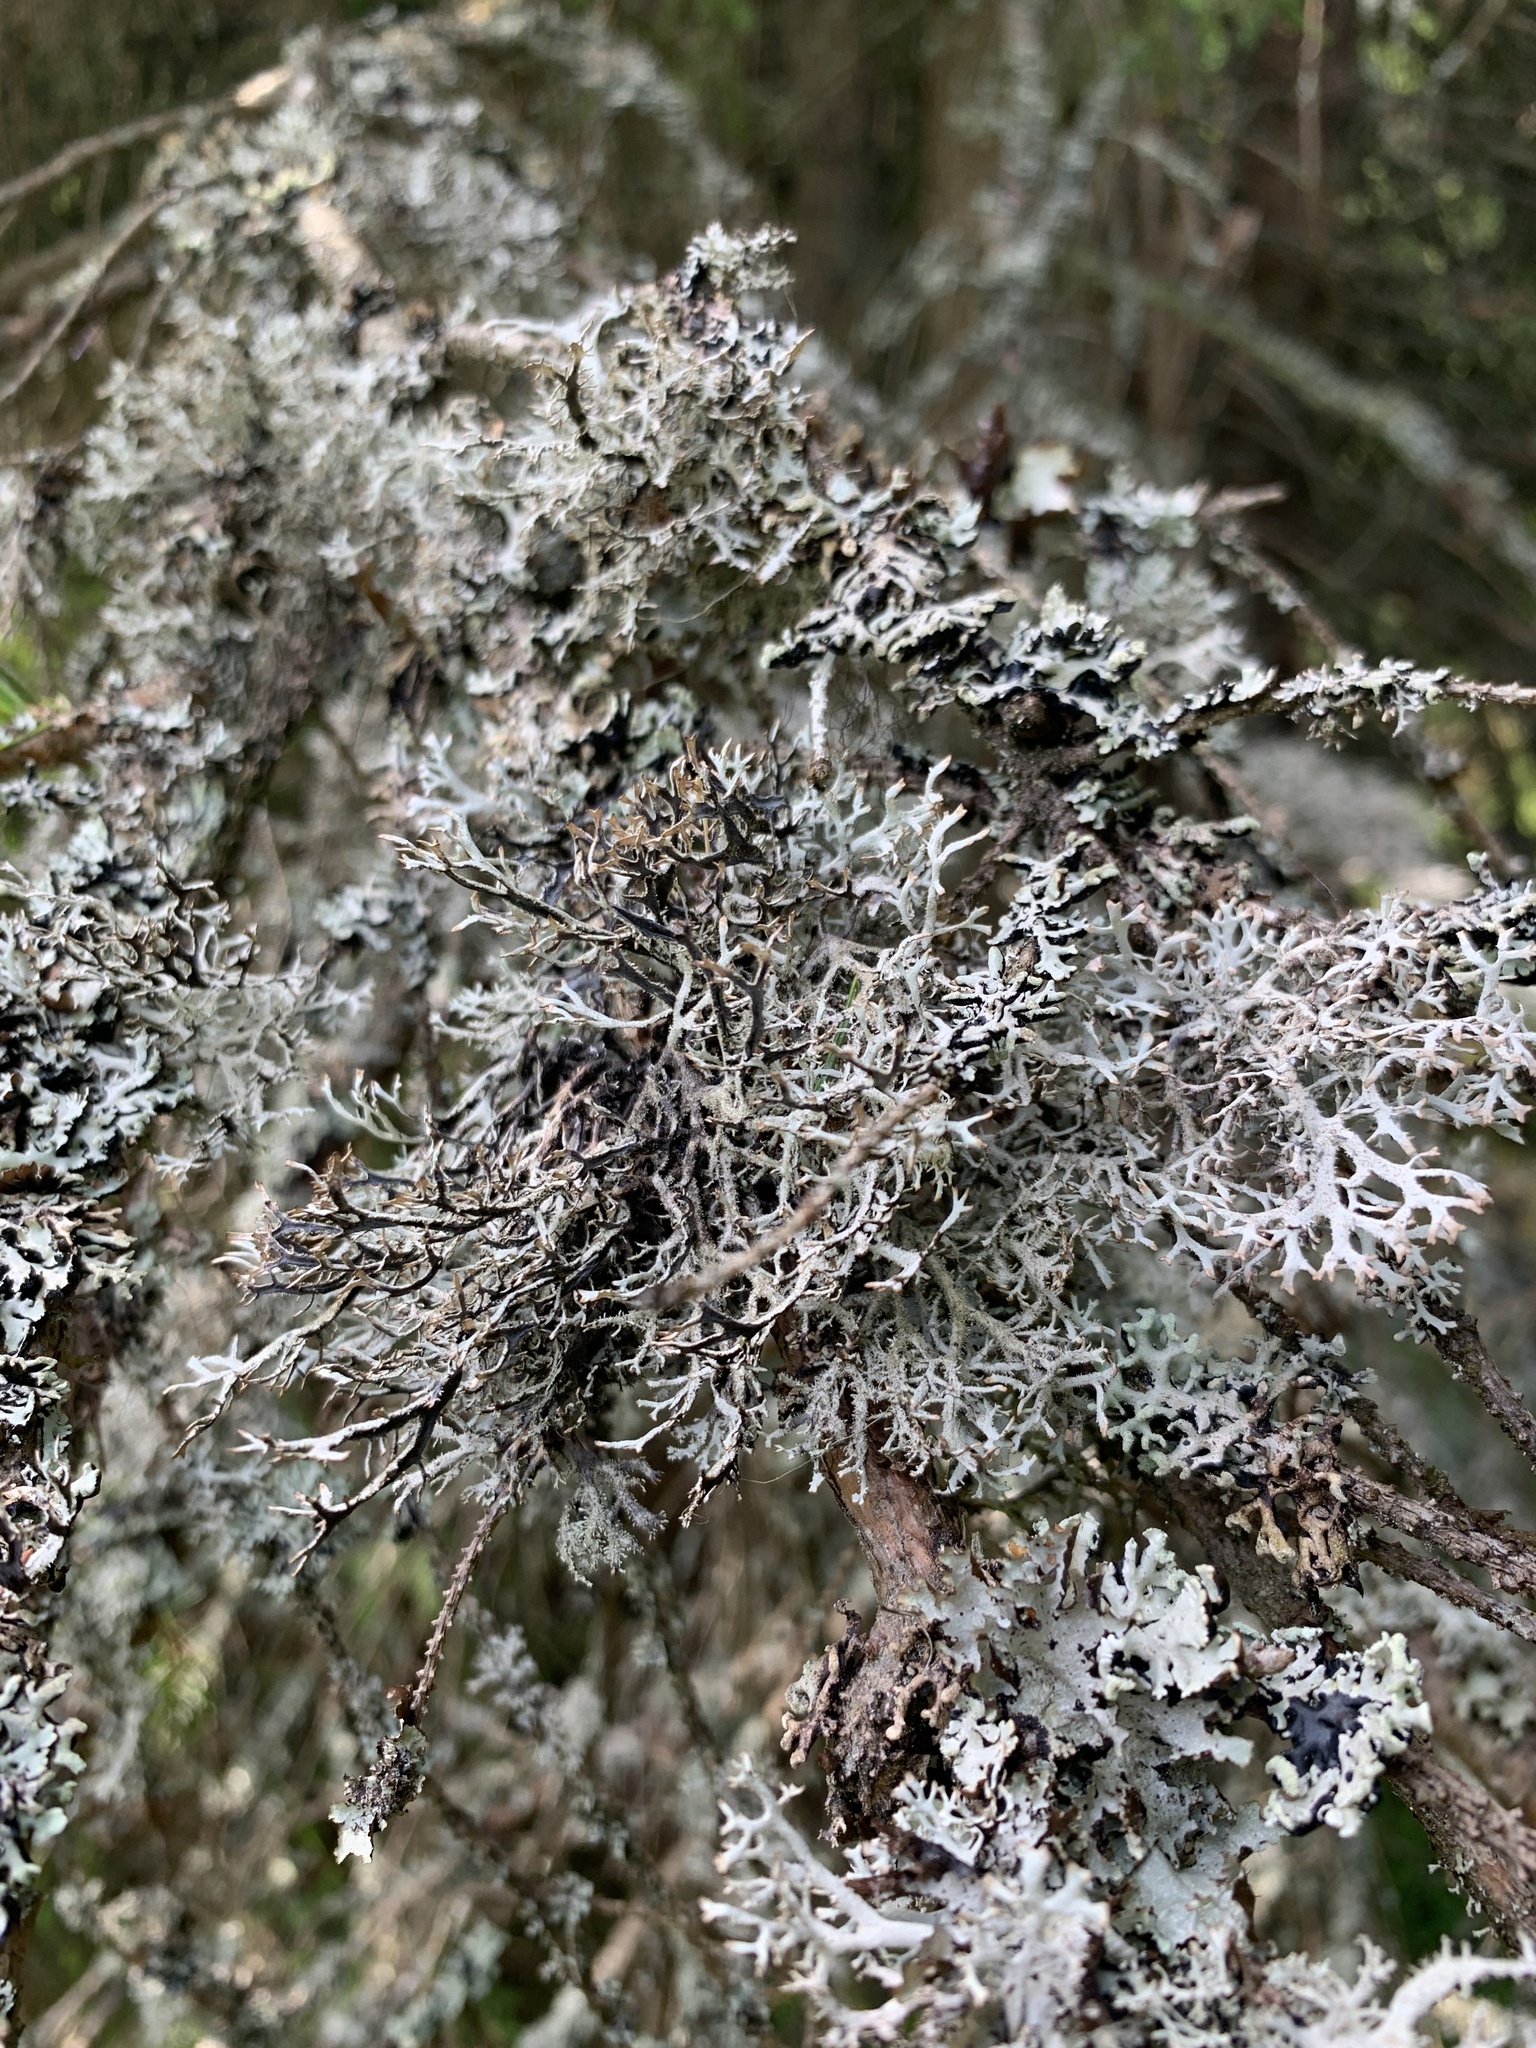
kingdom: Fungi
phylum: Ascomycota
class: Lecanoromycetes
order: Lecanorales
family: Parmeliaceae
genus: Pseudevernia
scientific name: Pseudevernia furfuracea
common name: Tree moss
